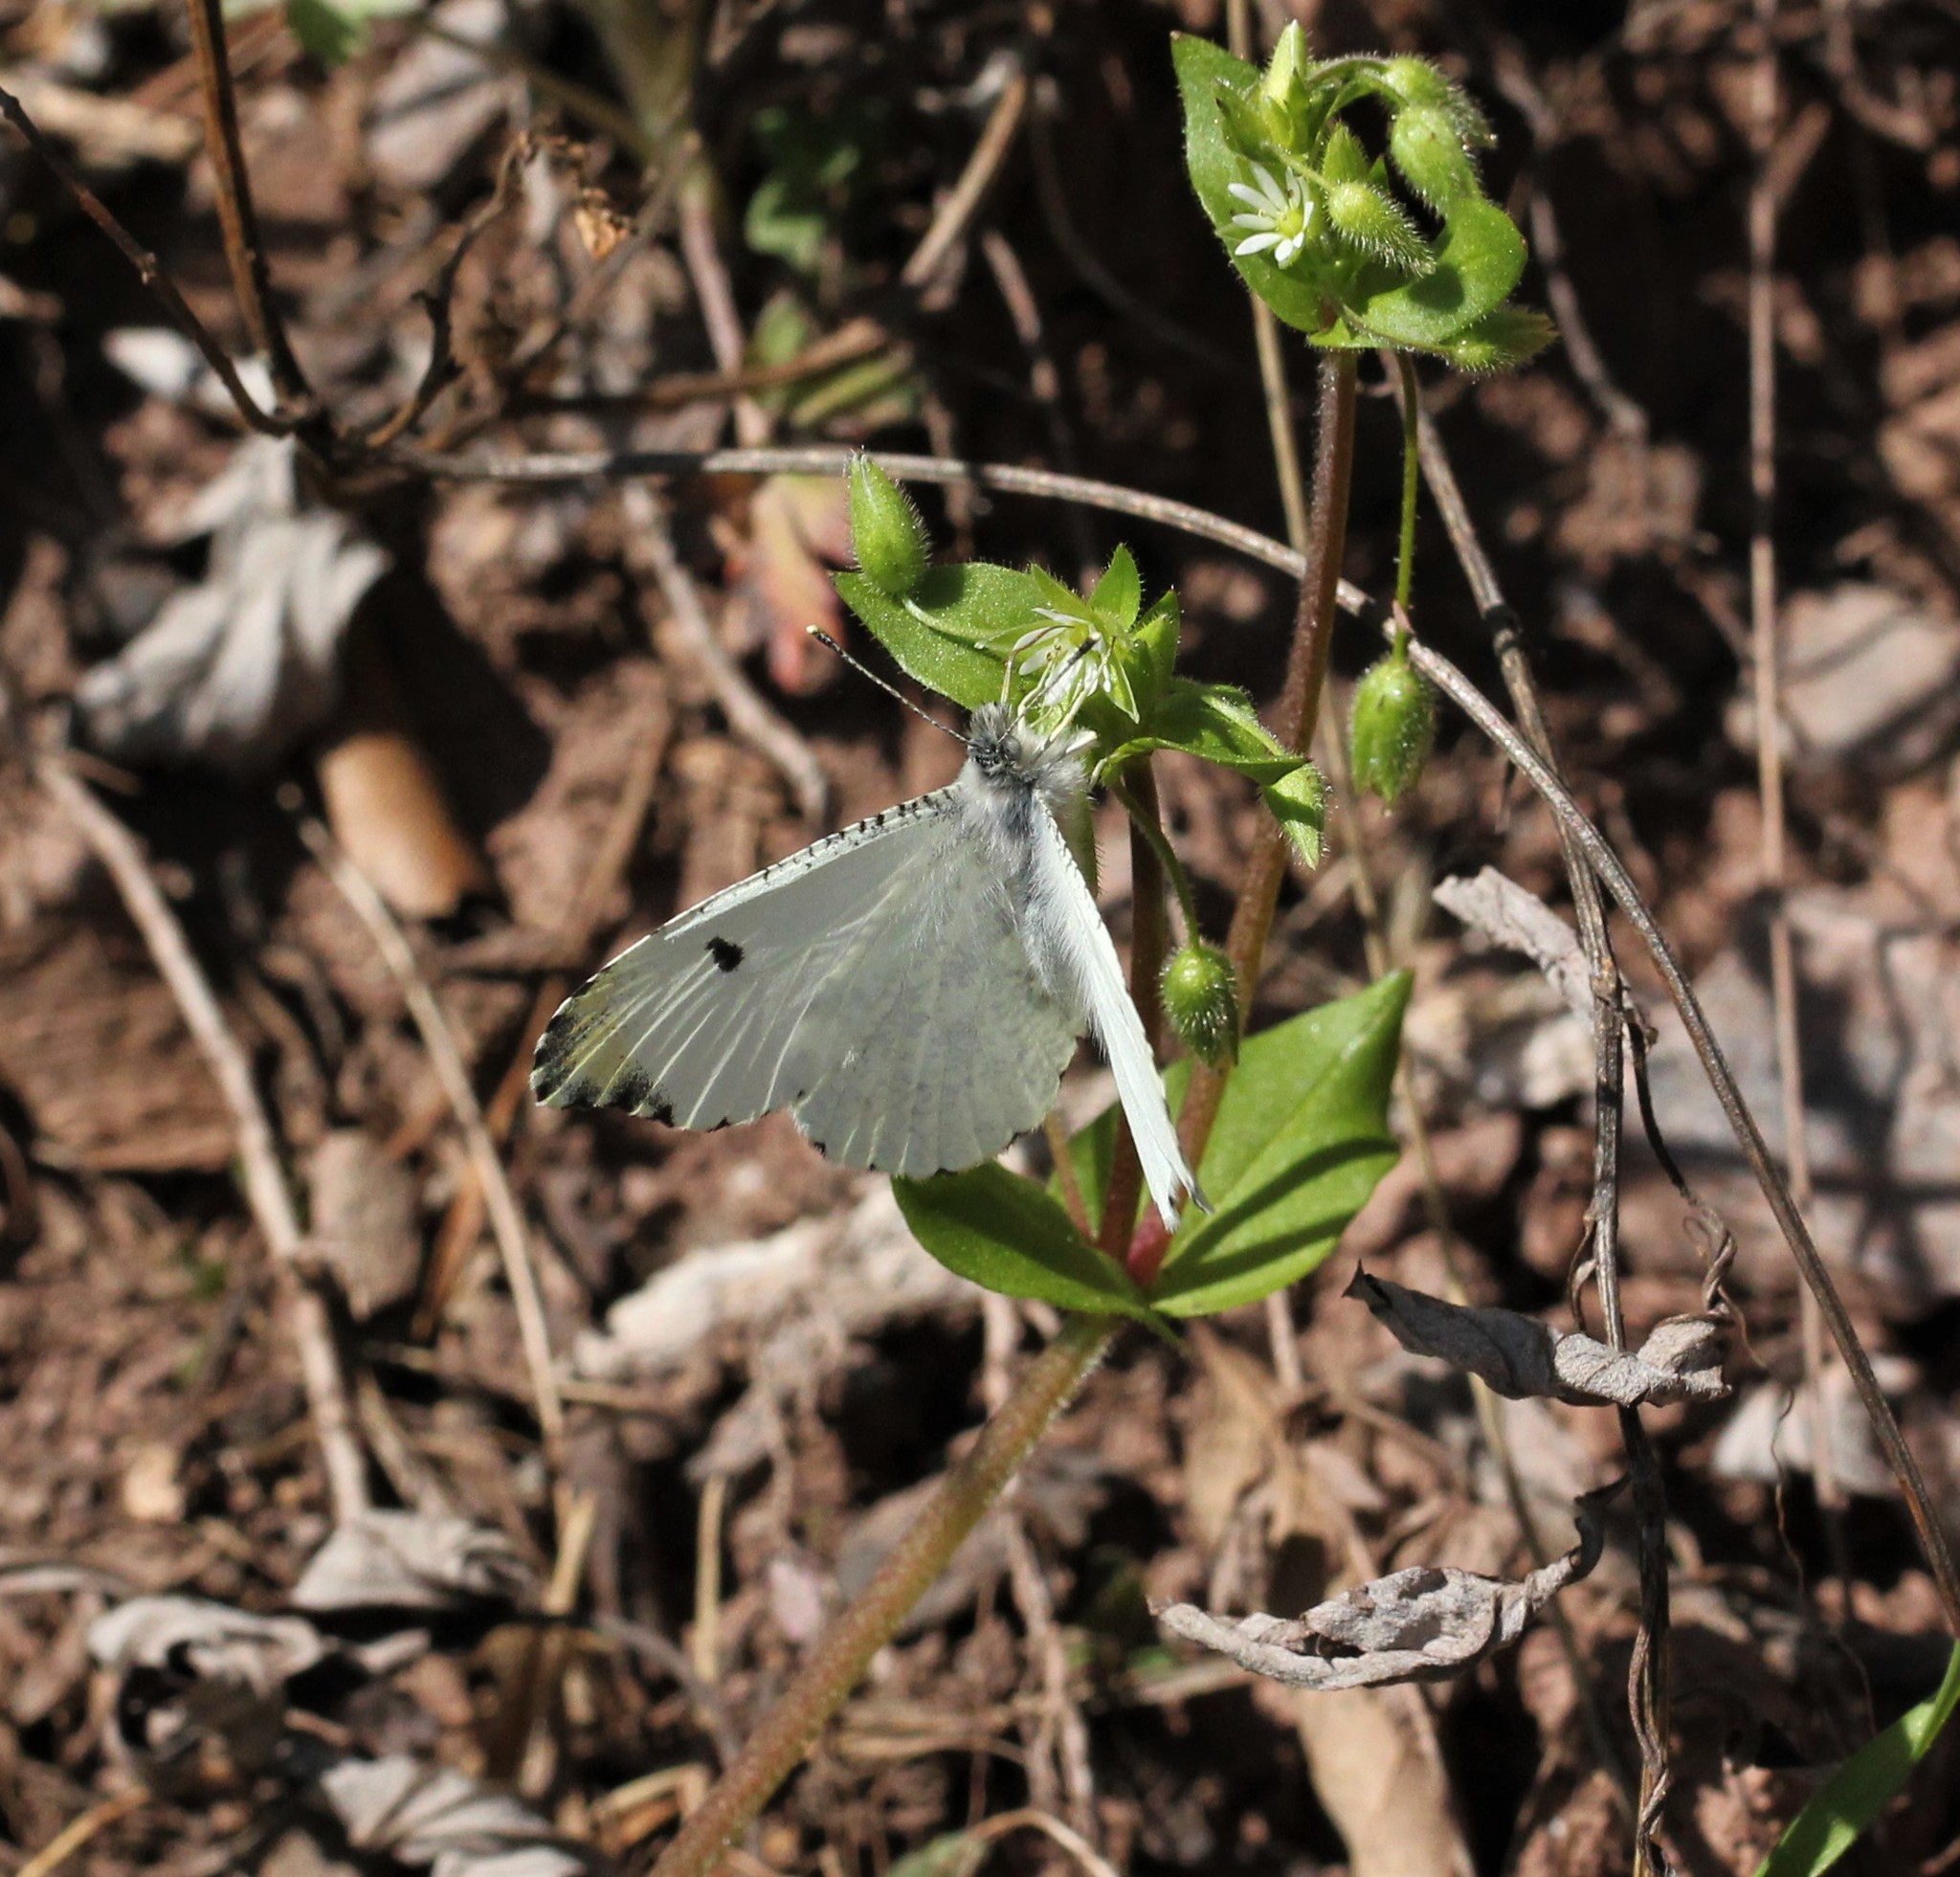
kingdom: Animalia
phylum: Arthropoda
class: Insecta
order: Lepidoptera
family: Pieridae
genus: Anthocharis
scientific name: Anthocharis midea
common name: Falcate orangetip
